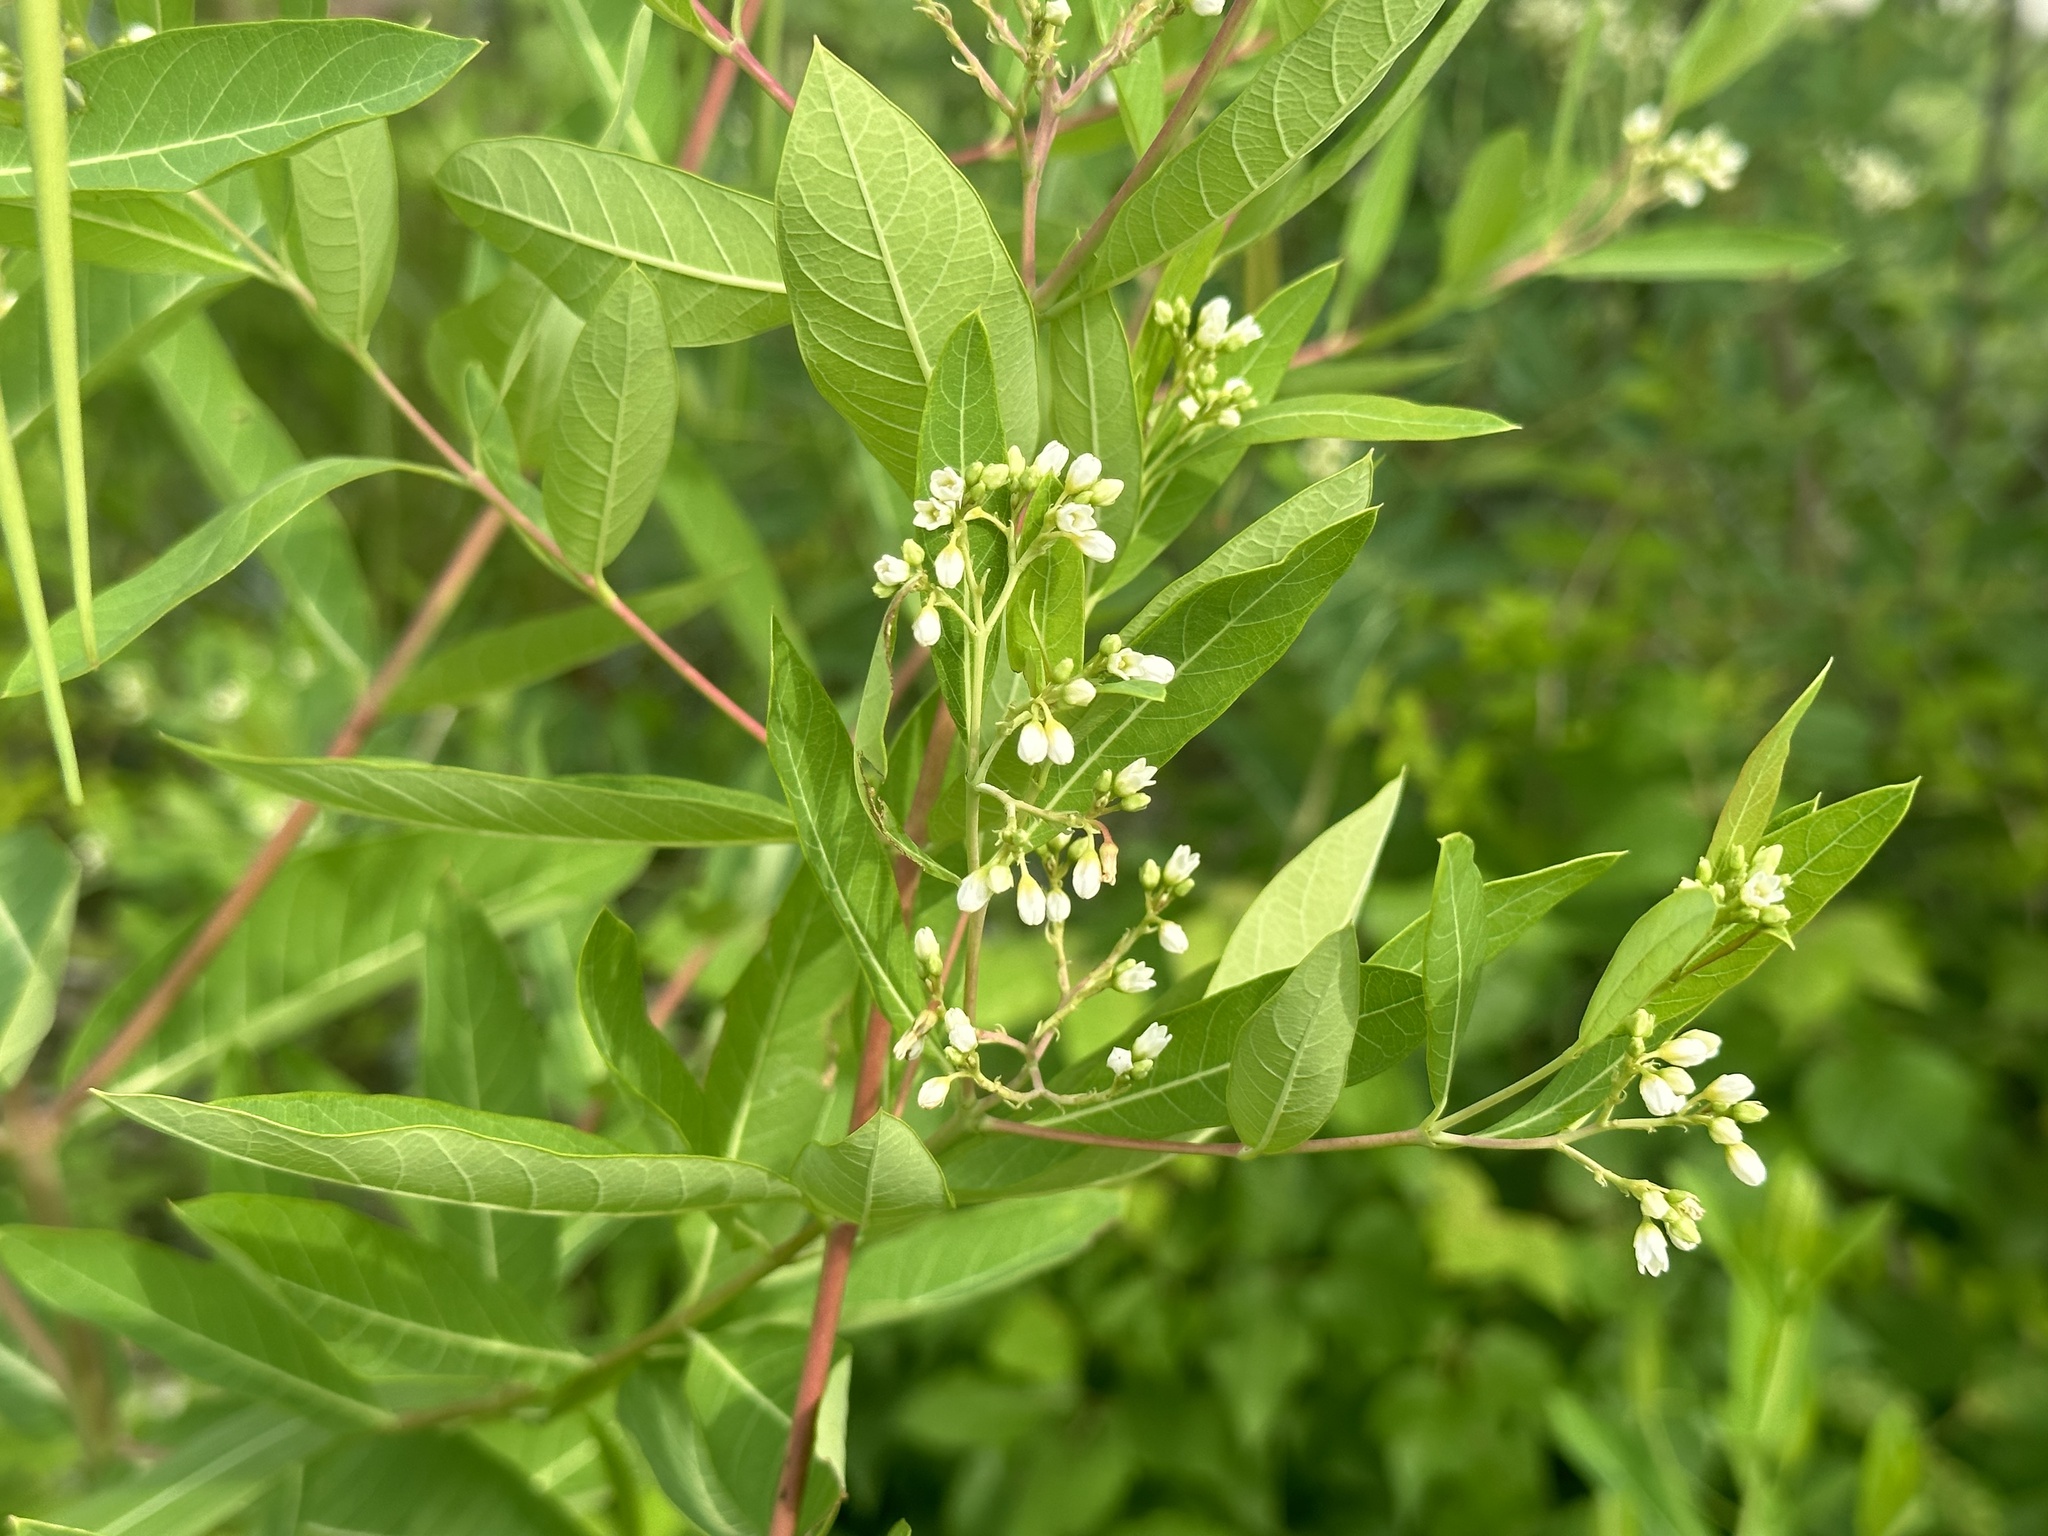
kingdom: Plantae
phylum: Tracheophyta
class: Magnoliopsida
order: Gentianales
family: Apocynaceae
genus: Apocynum
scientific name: Apocynum cannabinum
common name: Hemp dogbane
